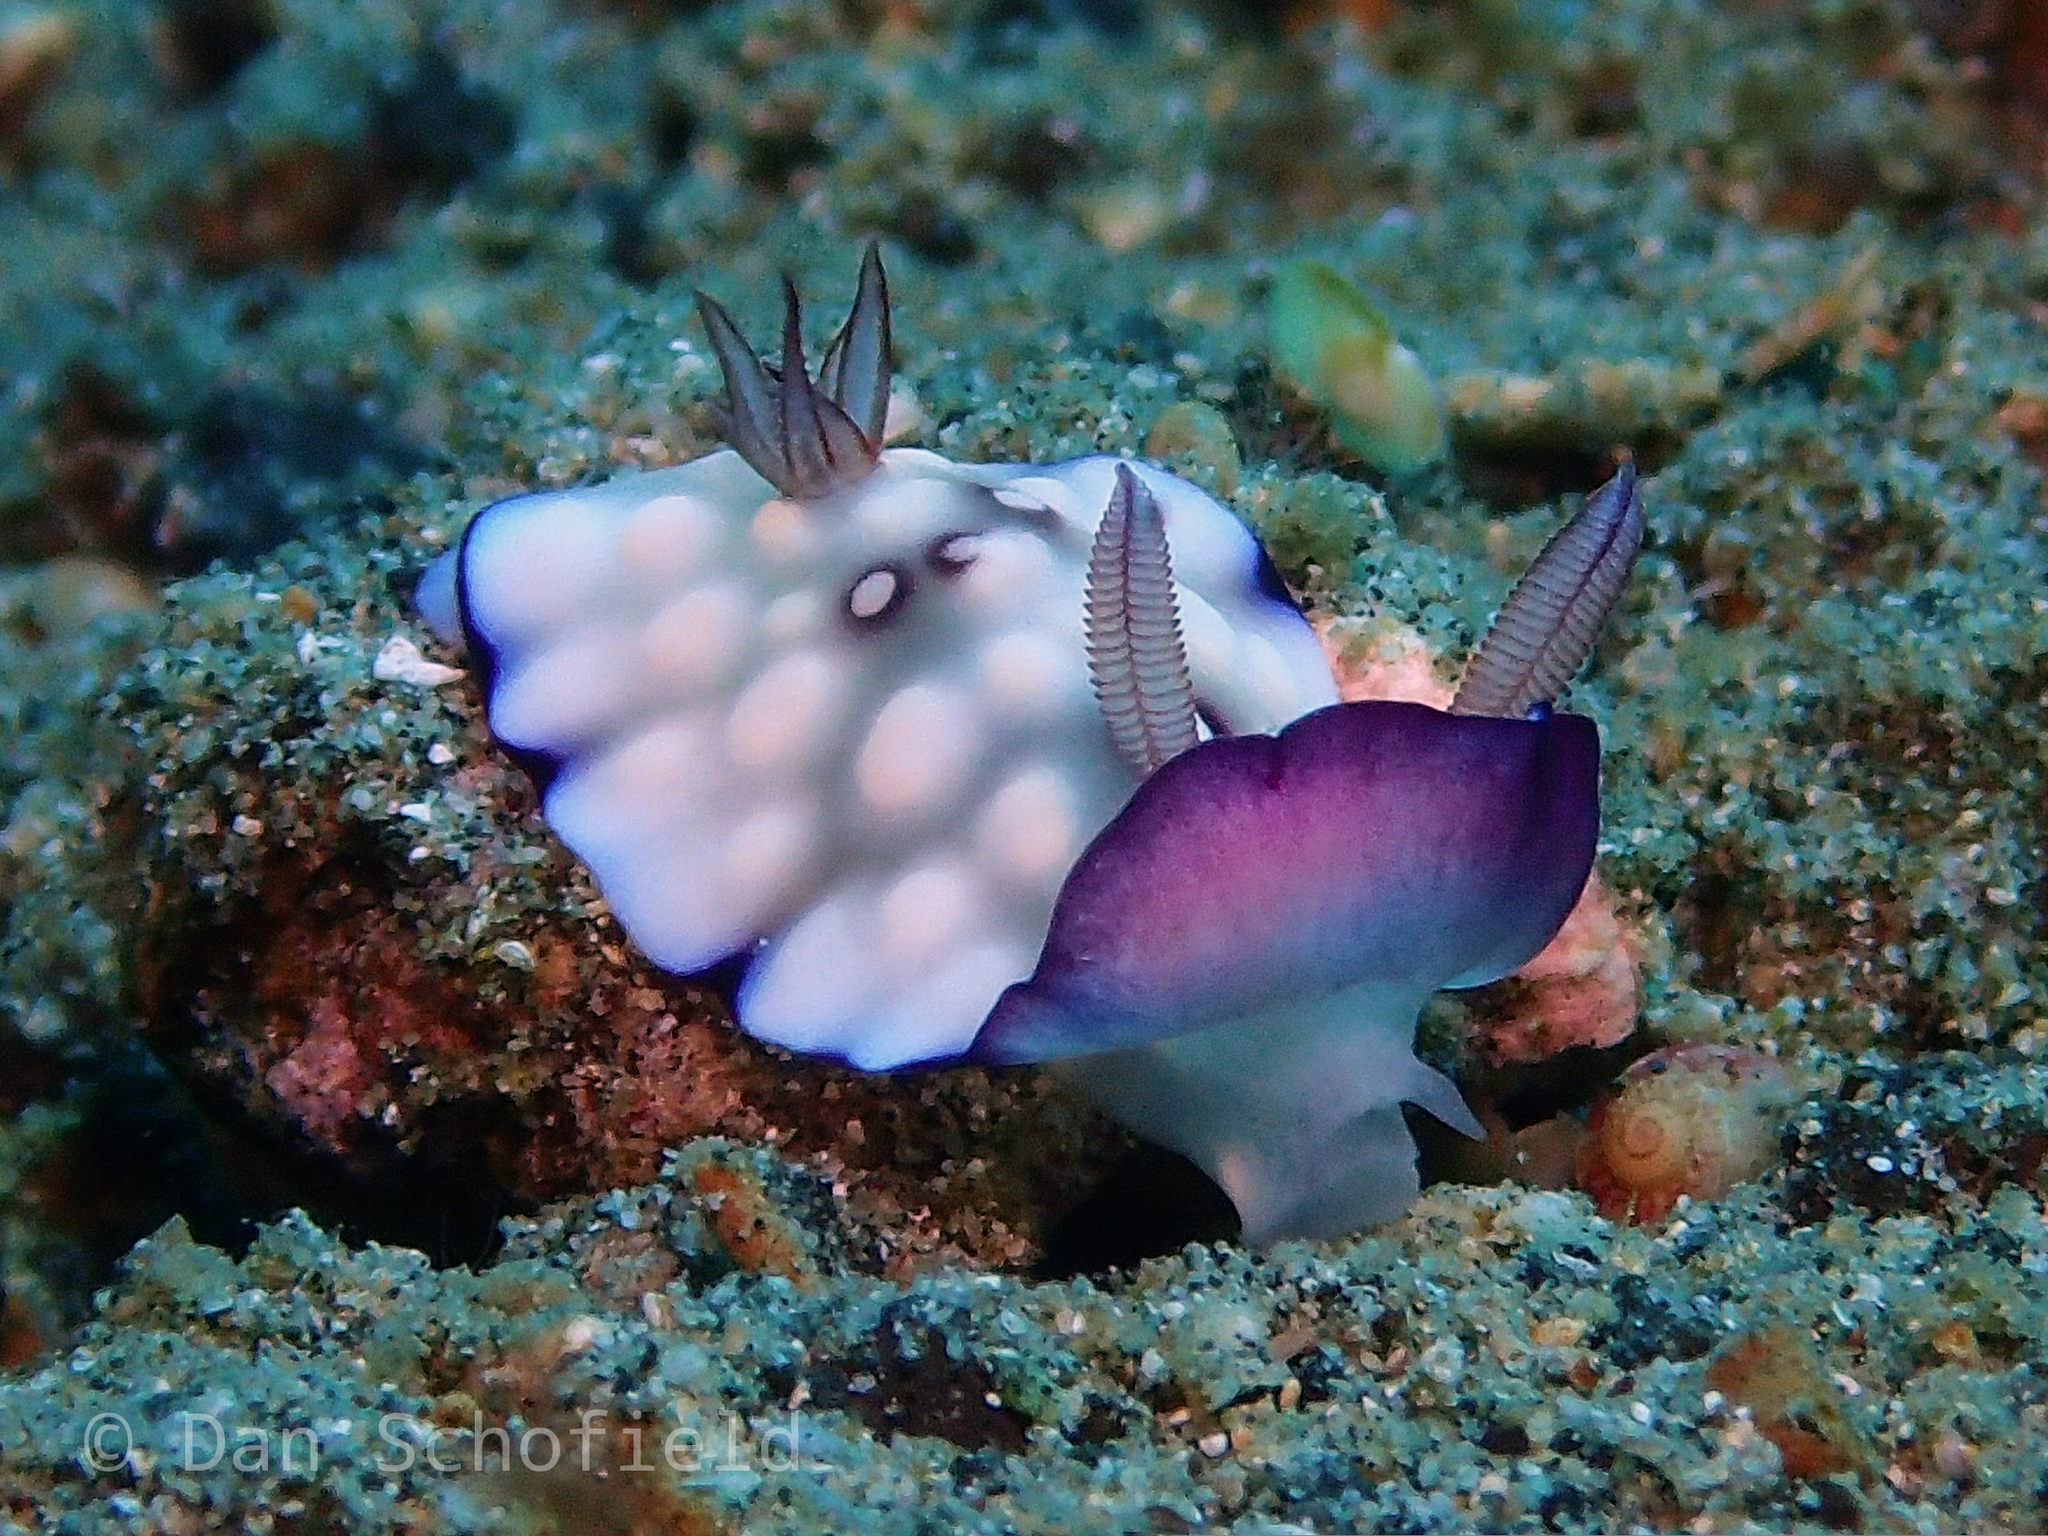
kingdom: Animalia
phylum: Mollusca
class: Gastropoda
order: Nudibranchia
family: Chromodorididae
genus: Goniobranchus
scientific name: Goniobranchus hintuanensis
